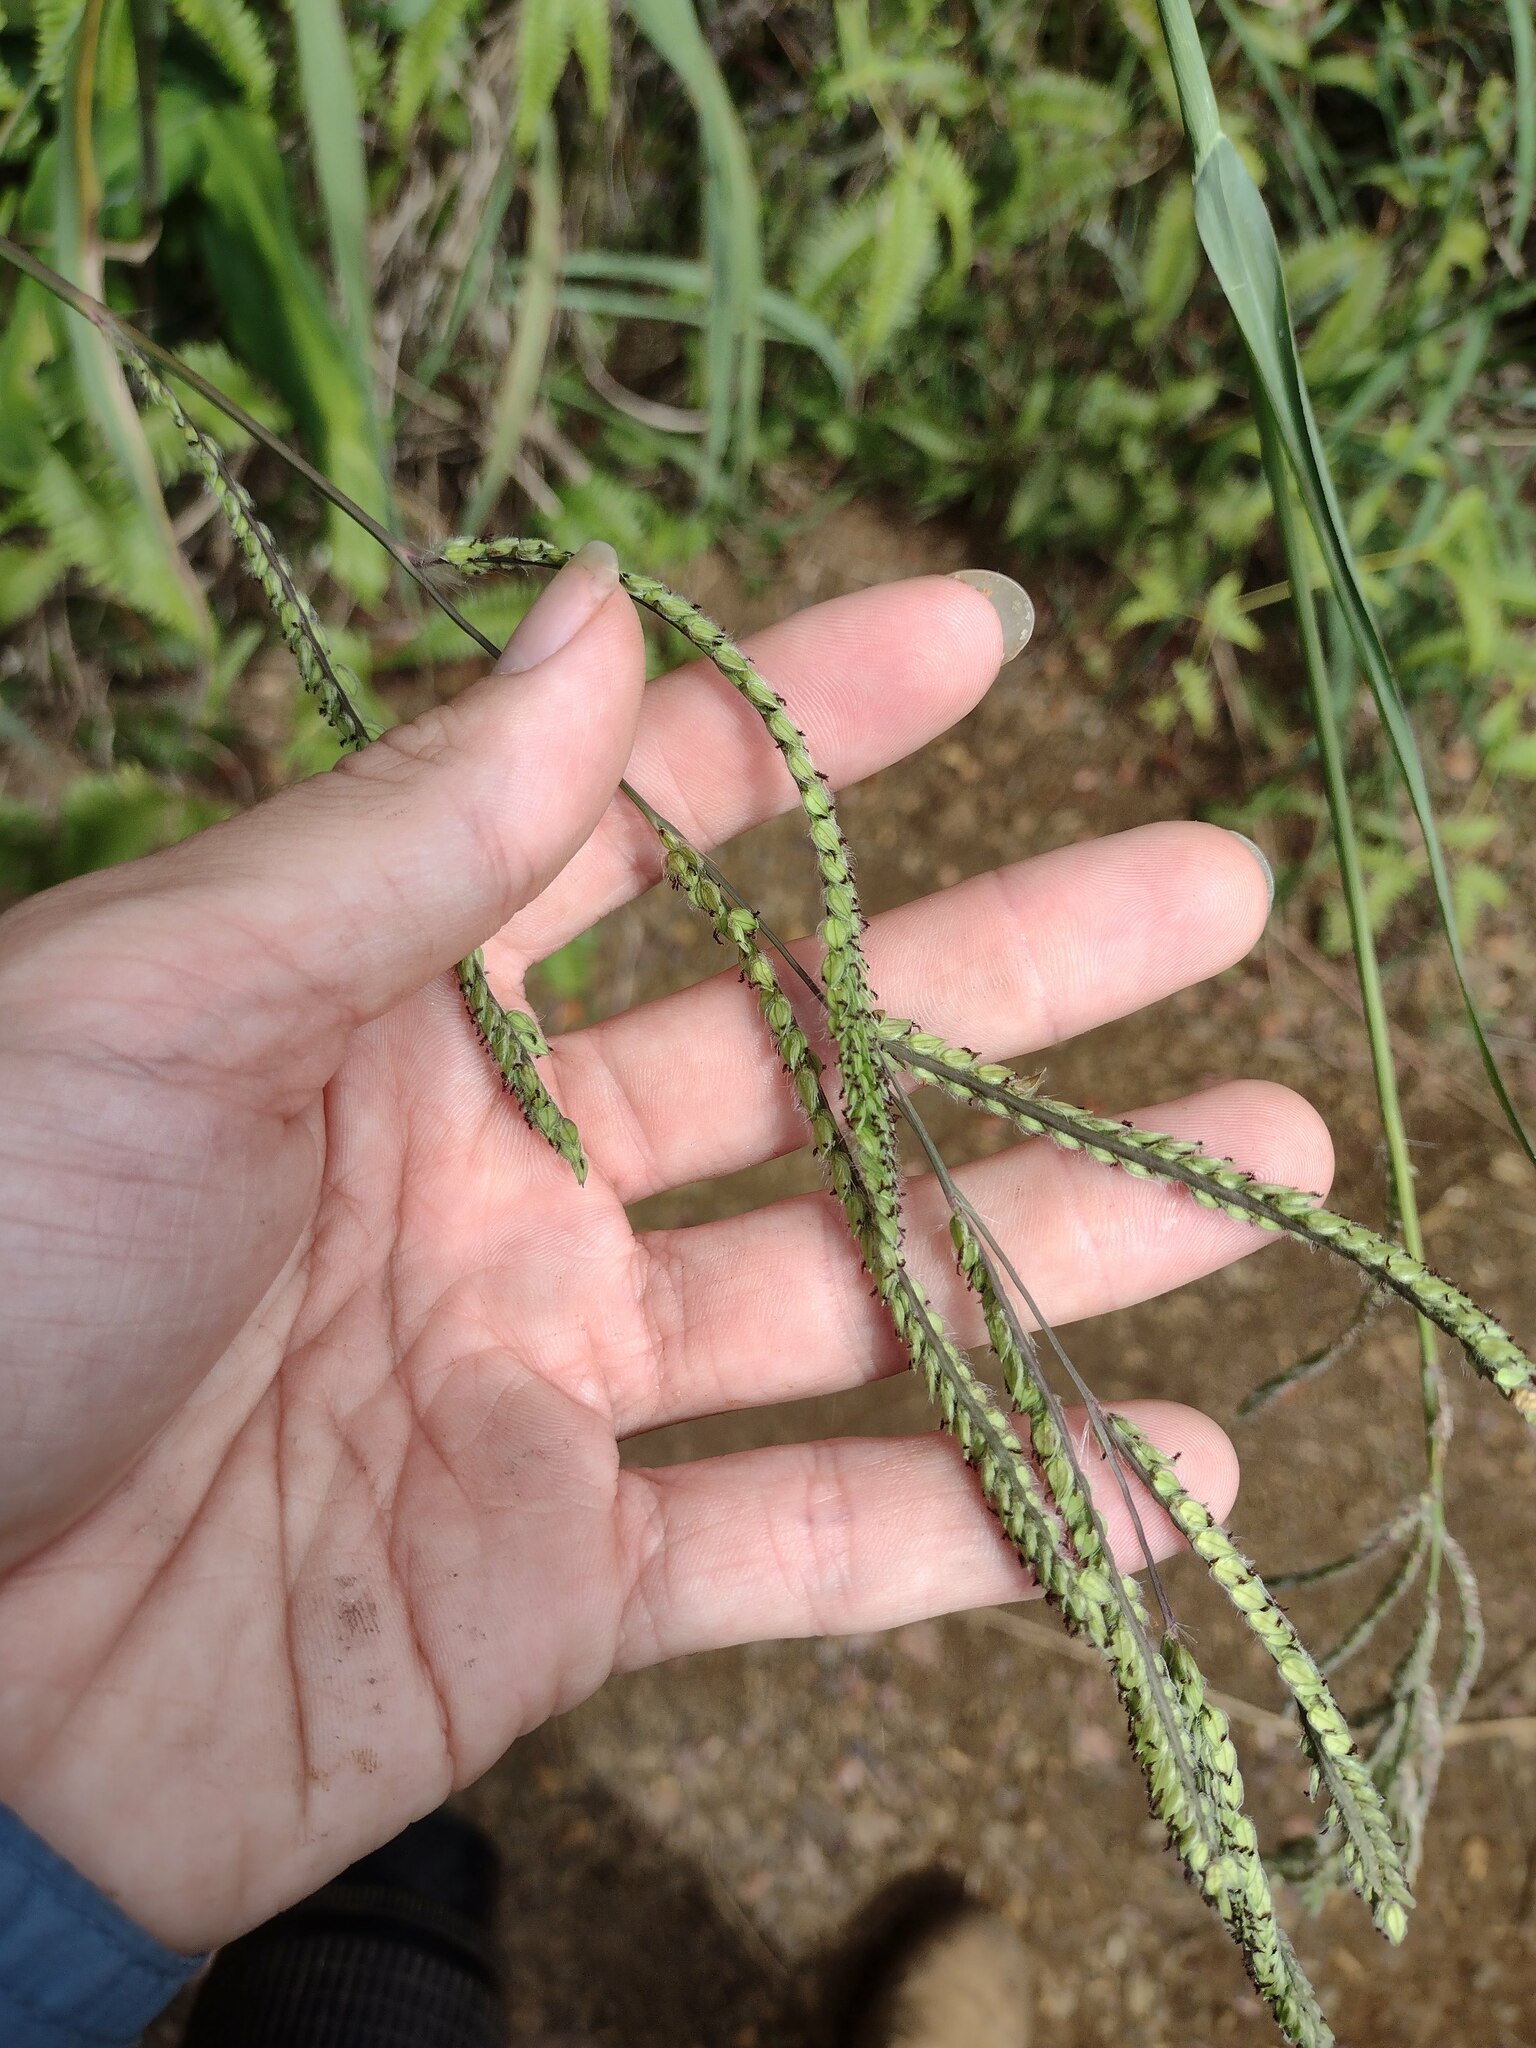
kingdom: Plantae
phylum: Tracheophyta
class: Liliopsida
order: Poales
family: Poaceae
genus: Paspalum
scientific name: Paspalum dilatatum
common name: Dallisgrass
